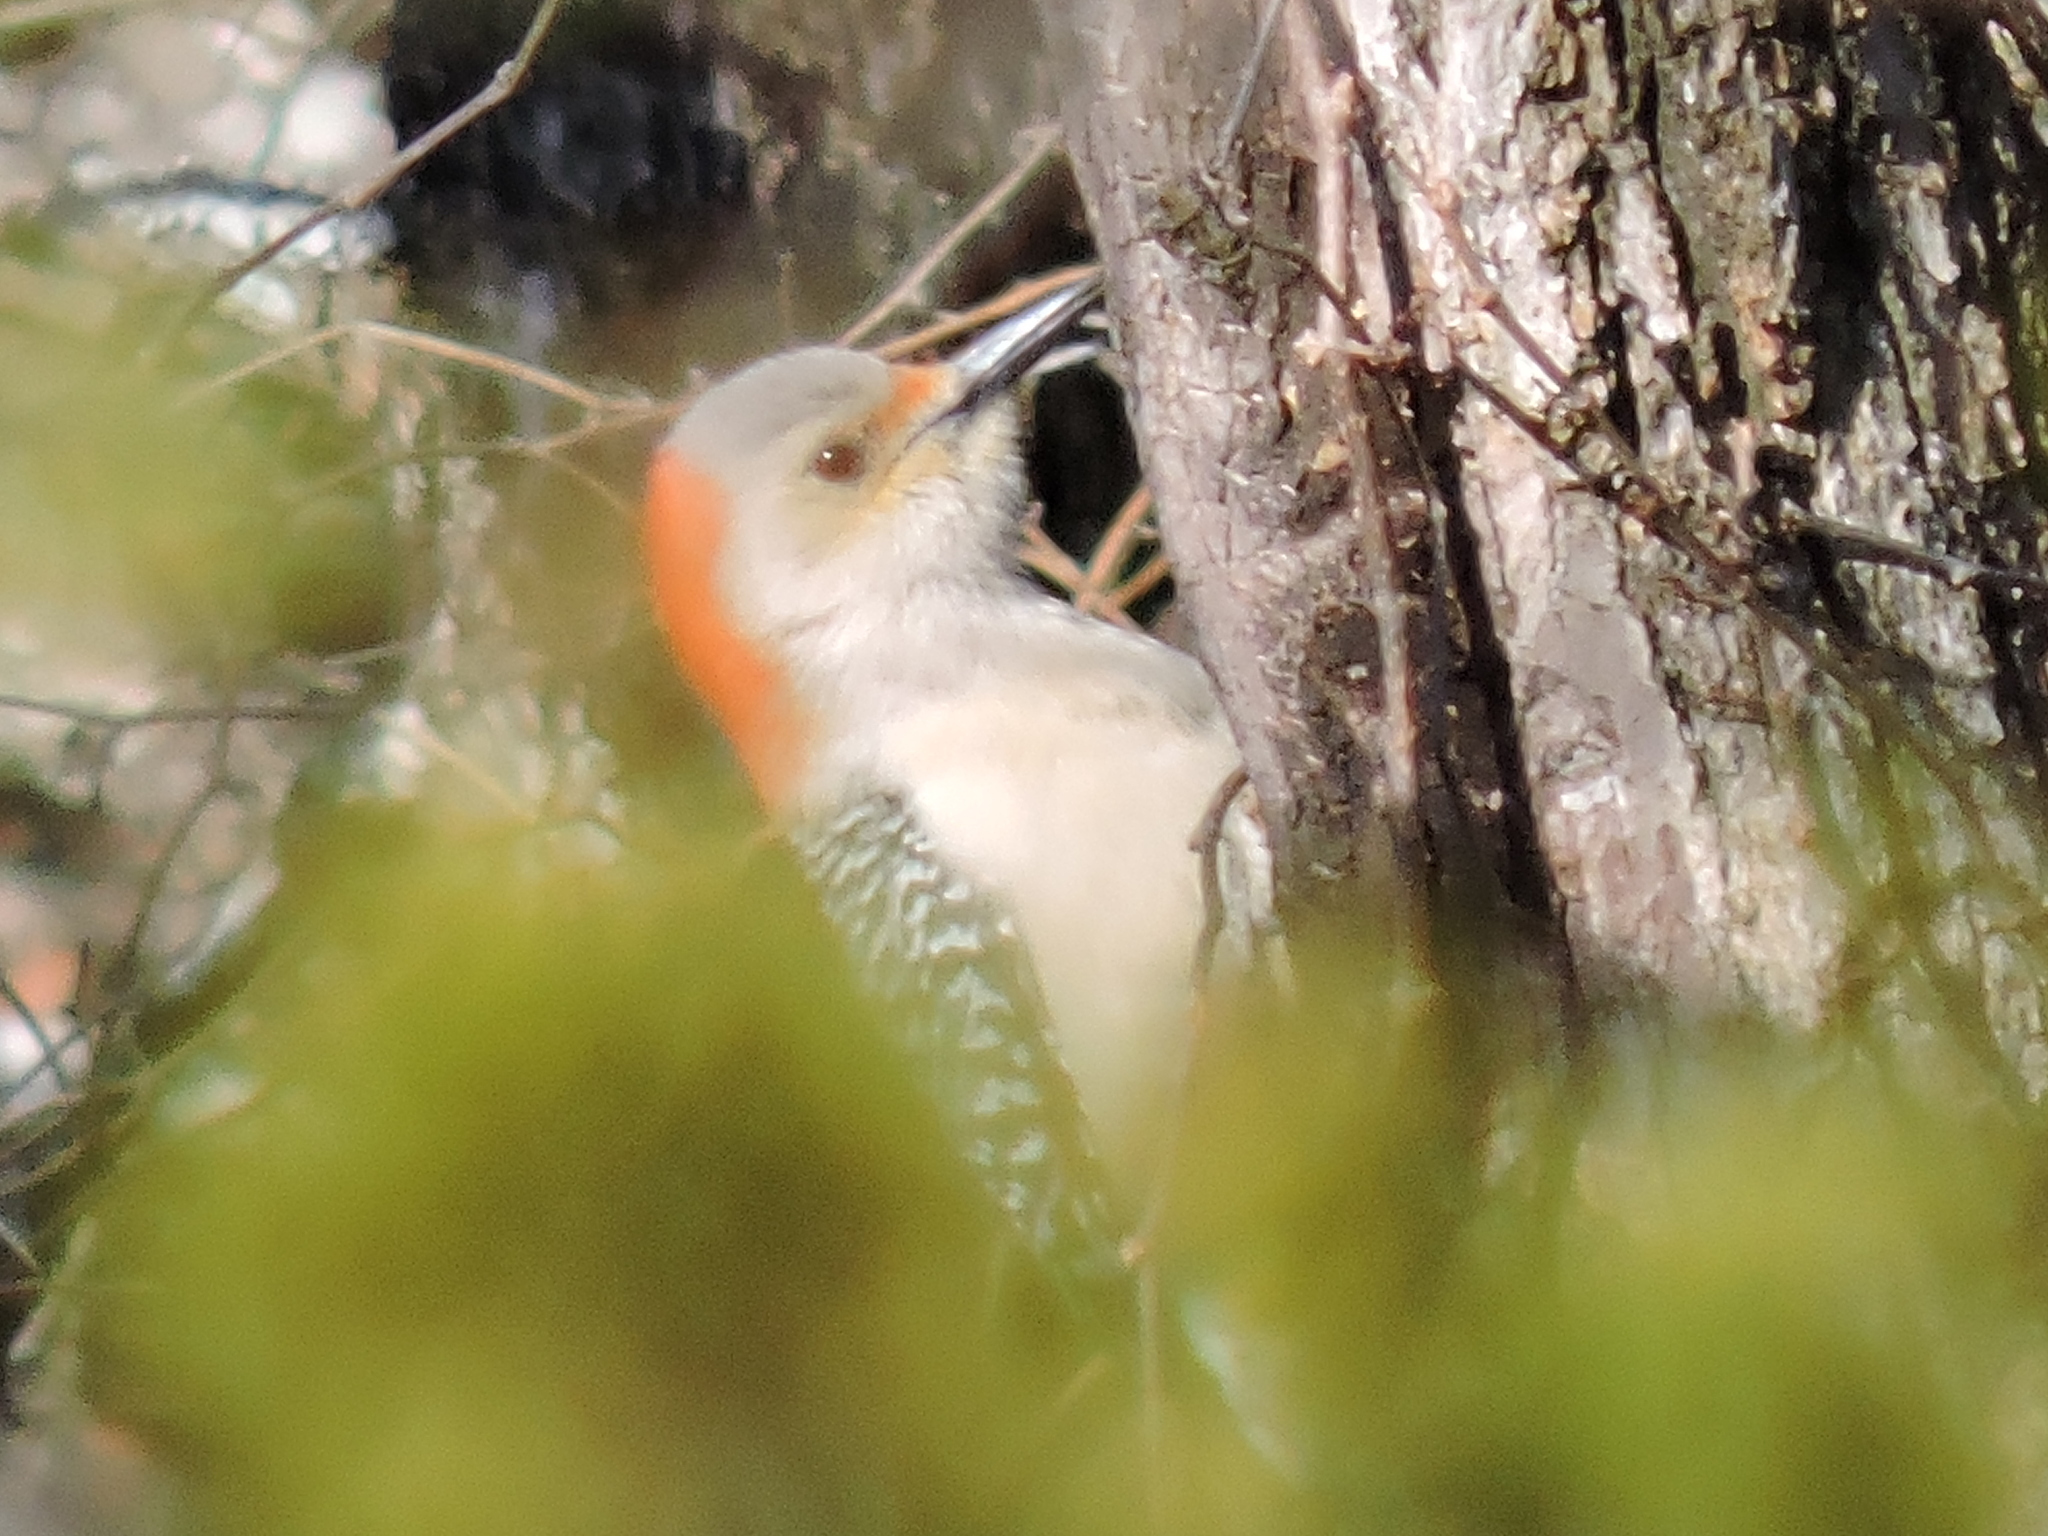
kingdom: Animalia
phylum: Chordata
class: Aves
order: Piciformes
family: Picidae
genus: Melanerpes
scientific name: Melanerpes carolinus
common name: Red-bellied woodpecker
